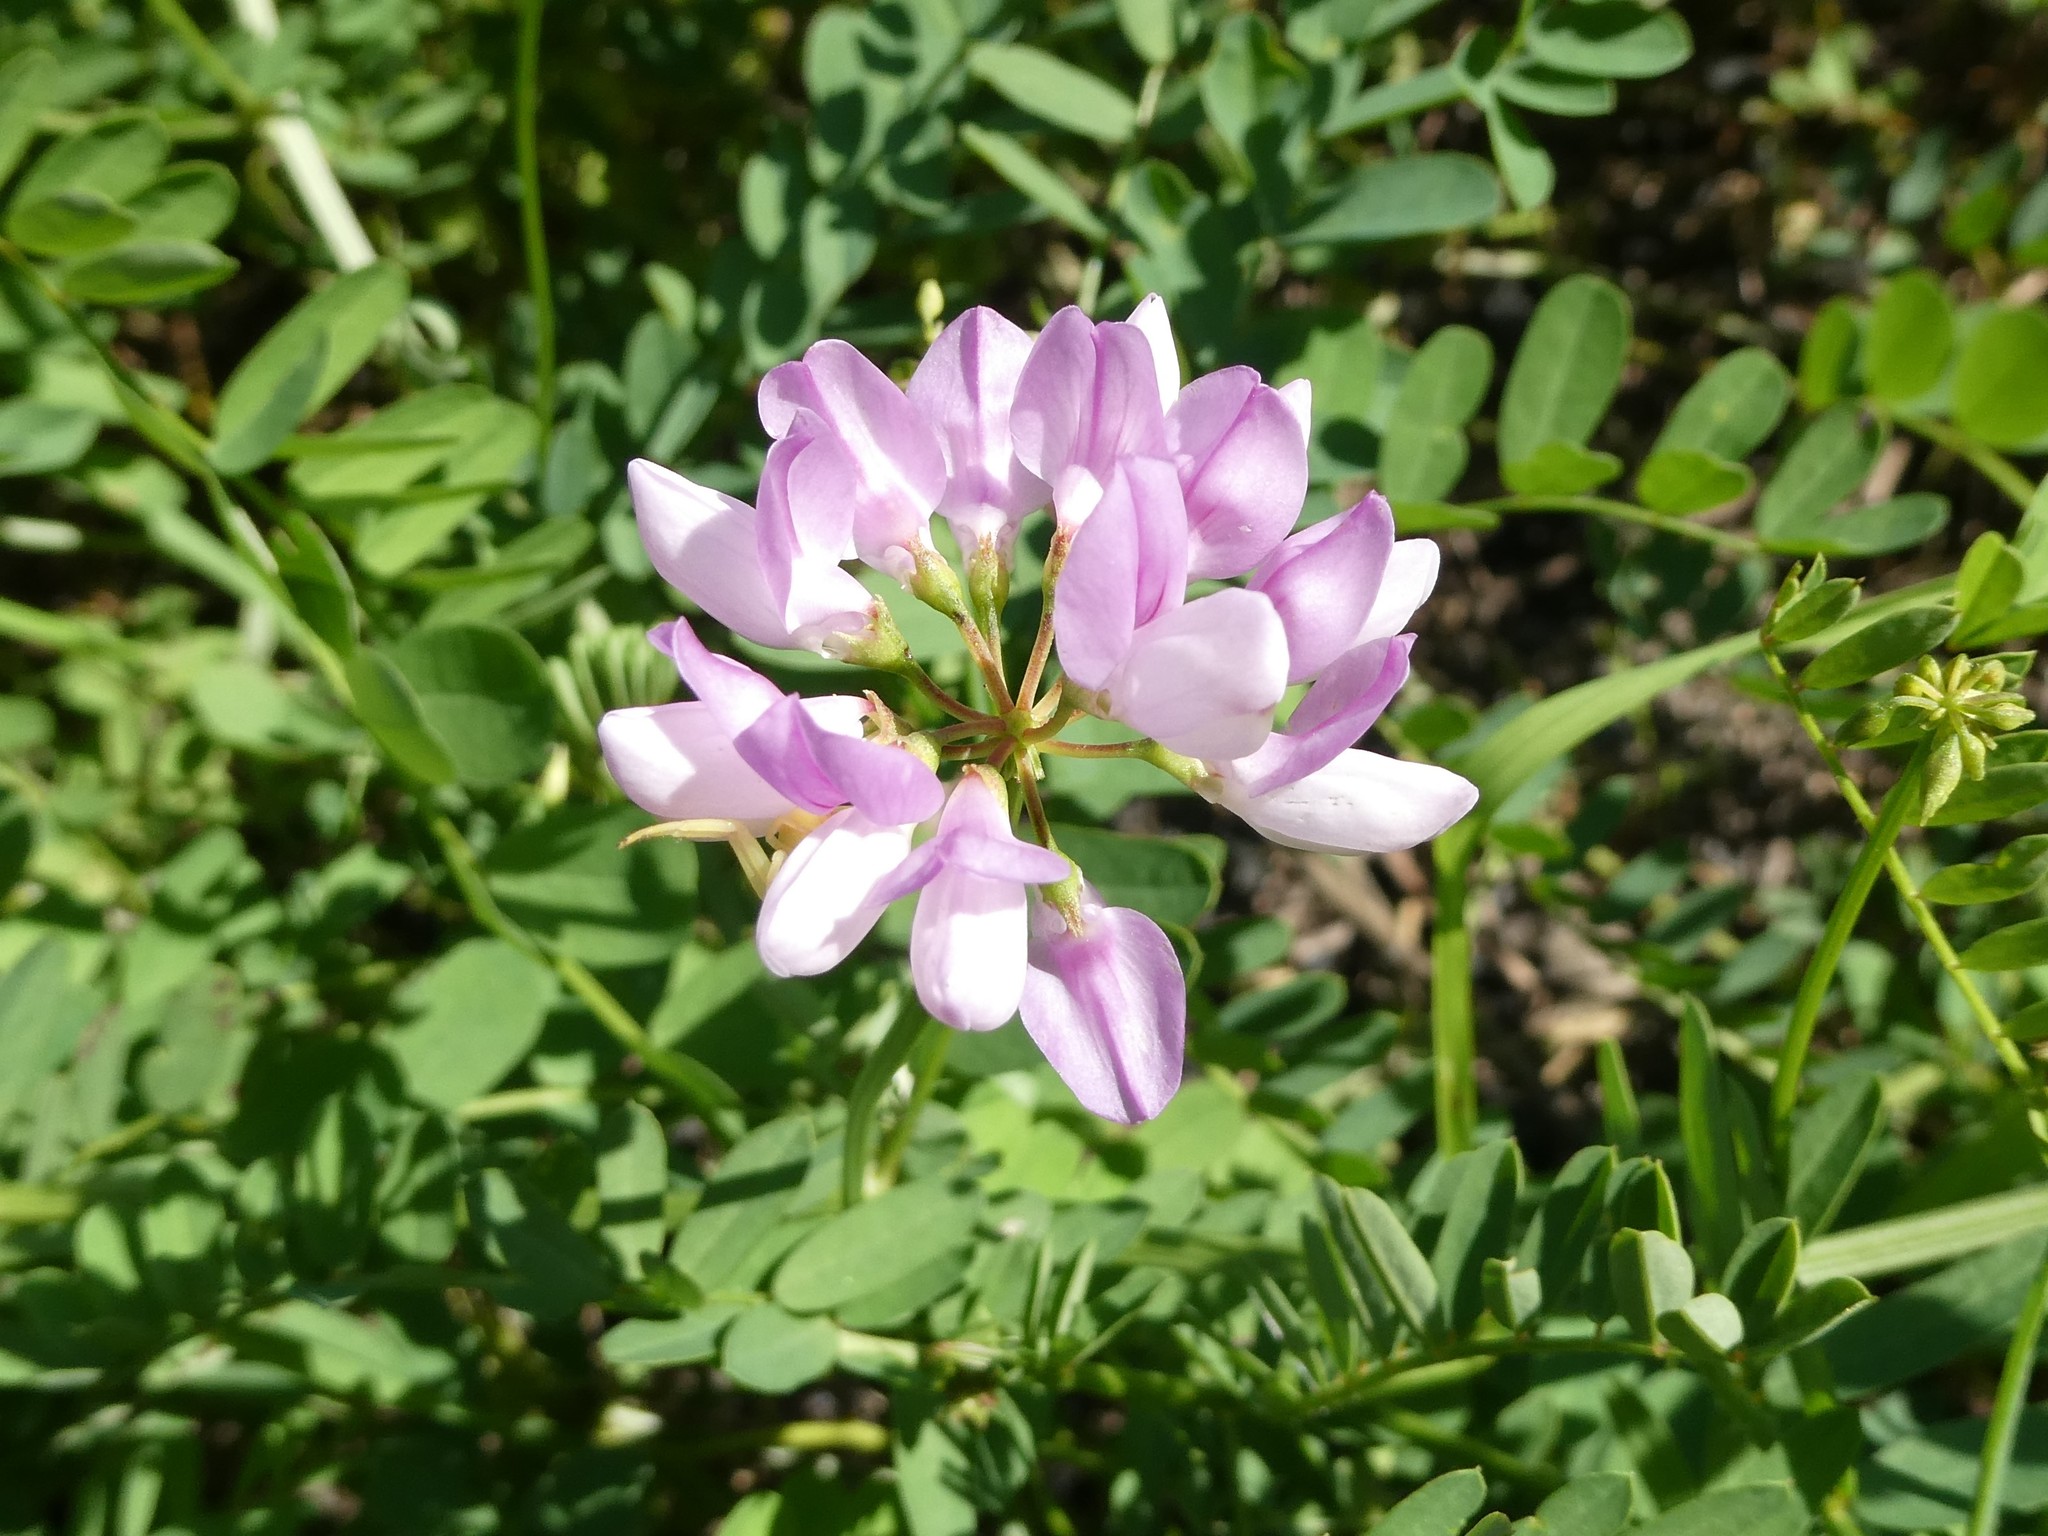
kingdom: Plantae
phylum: Tracheophyta
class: Magnoliopsida
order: Fabales
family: Fabaceae
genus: Coronilla
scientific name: Coronilla varia
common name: Crownvetch
